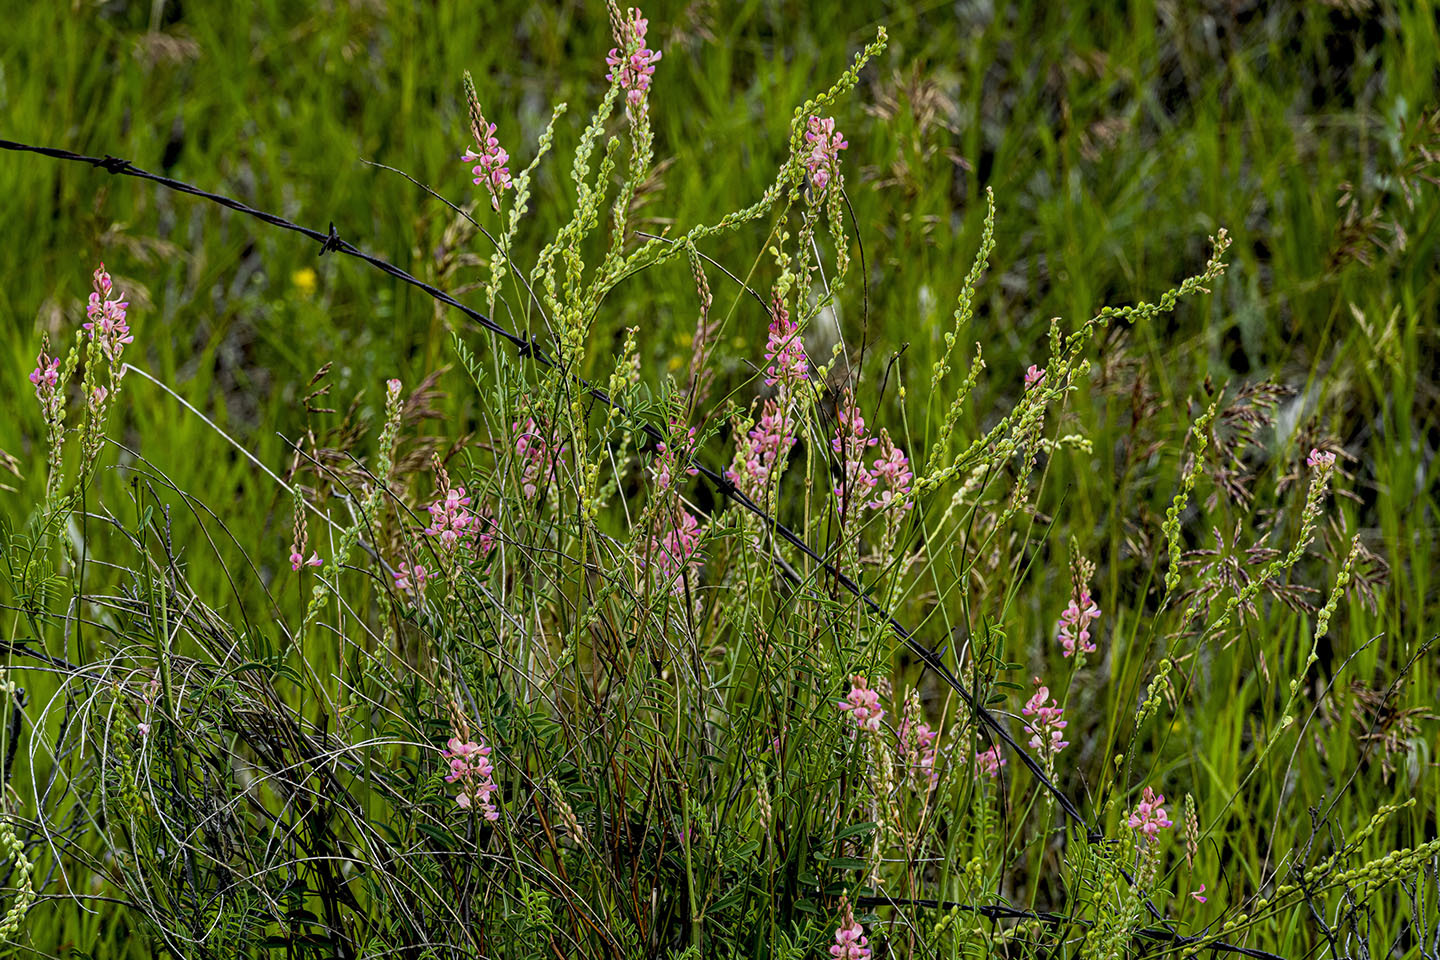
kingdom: Plantae
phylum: Tracheophyta
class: Magnoliopsida
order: Fabales
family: Fabaceae
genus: Onobrychis
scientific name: Onobrychis viciifolia
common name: Sainfoin
